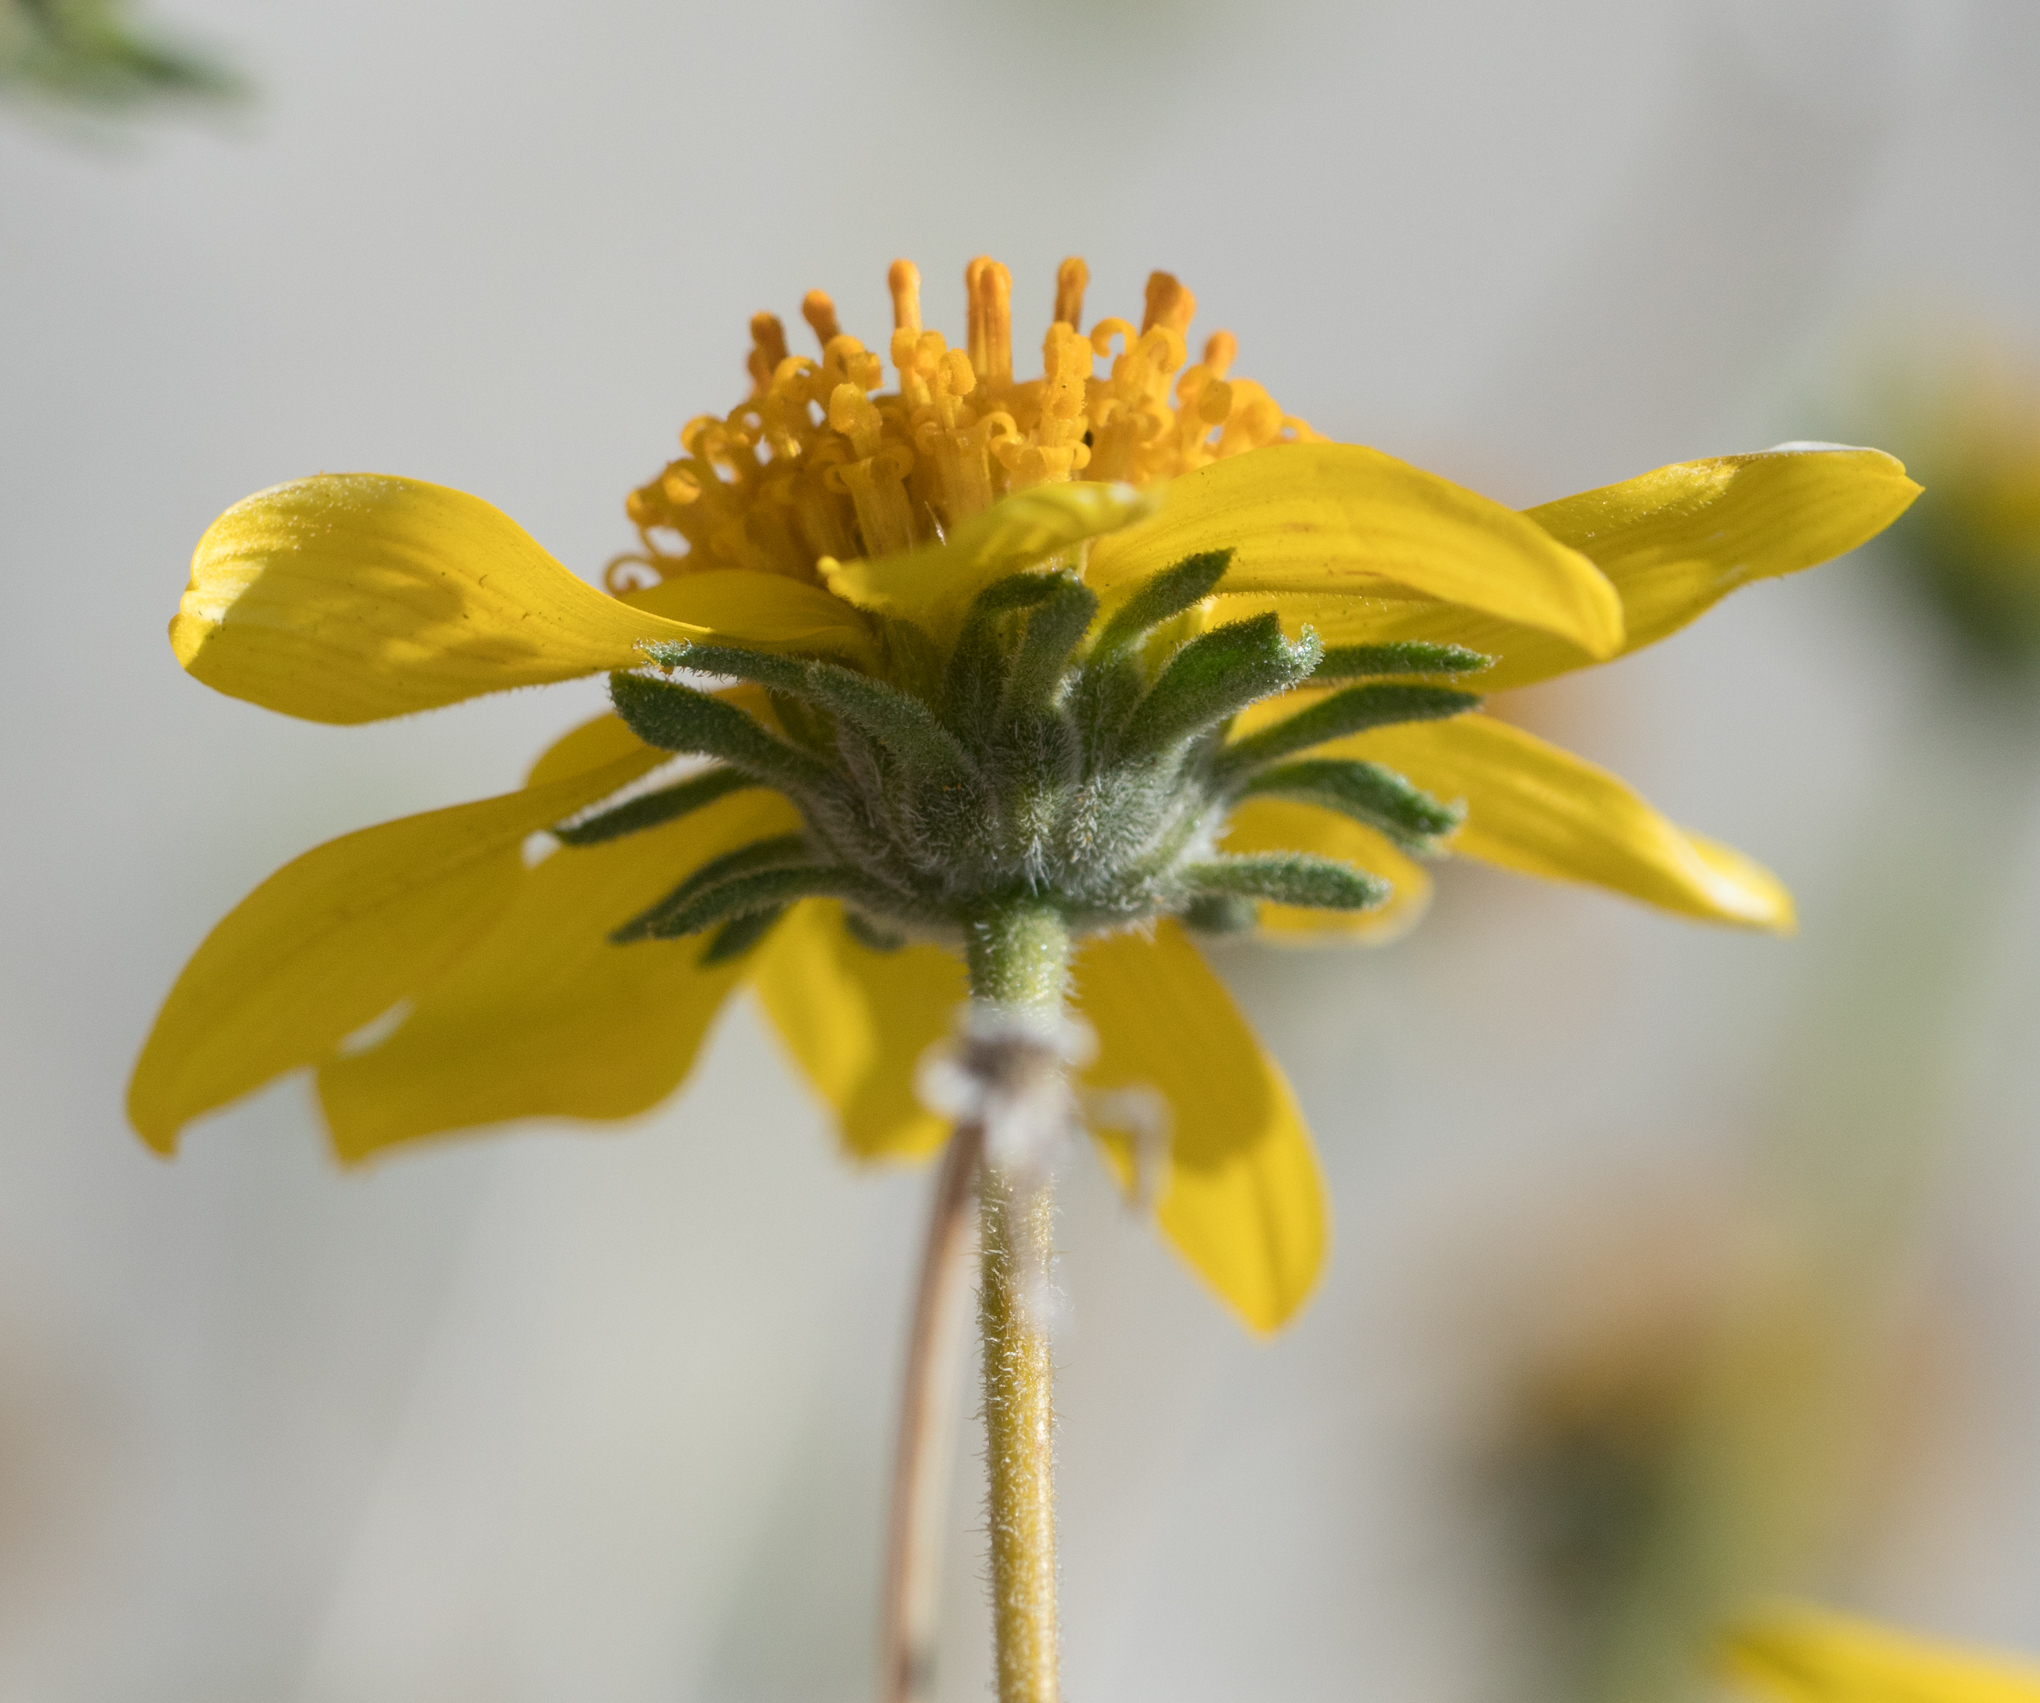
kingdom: Plantae
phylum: Tracheophyta
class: Magnoliopsida
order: Asterales
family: Asteraceae
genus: Bahiopsis
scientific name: Bahiopsis parishii
